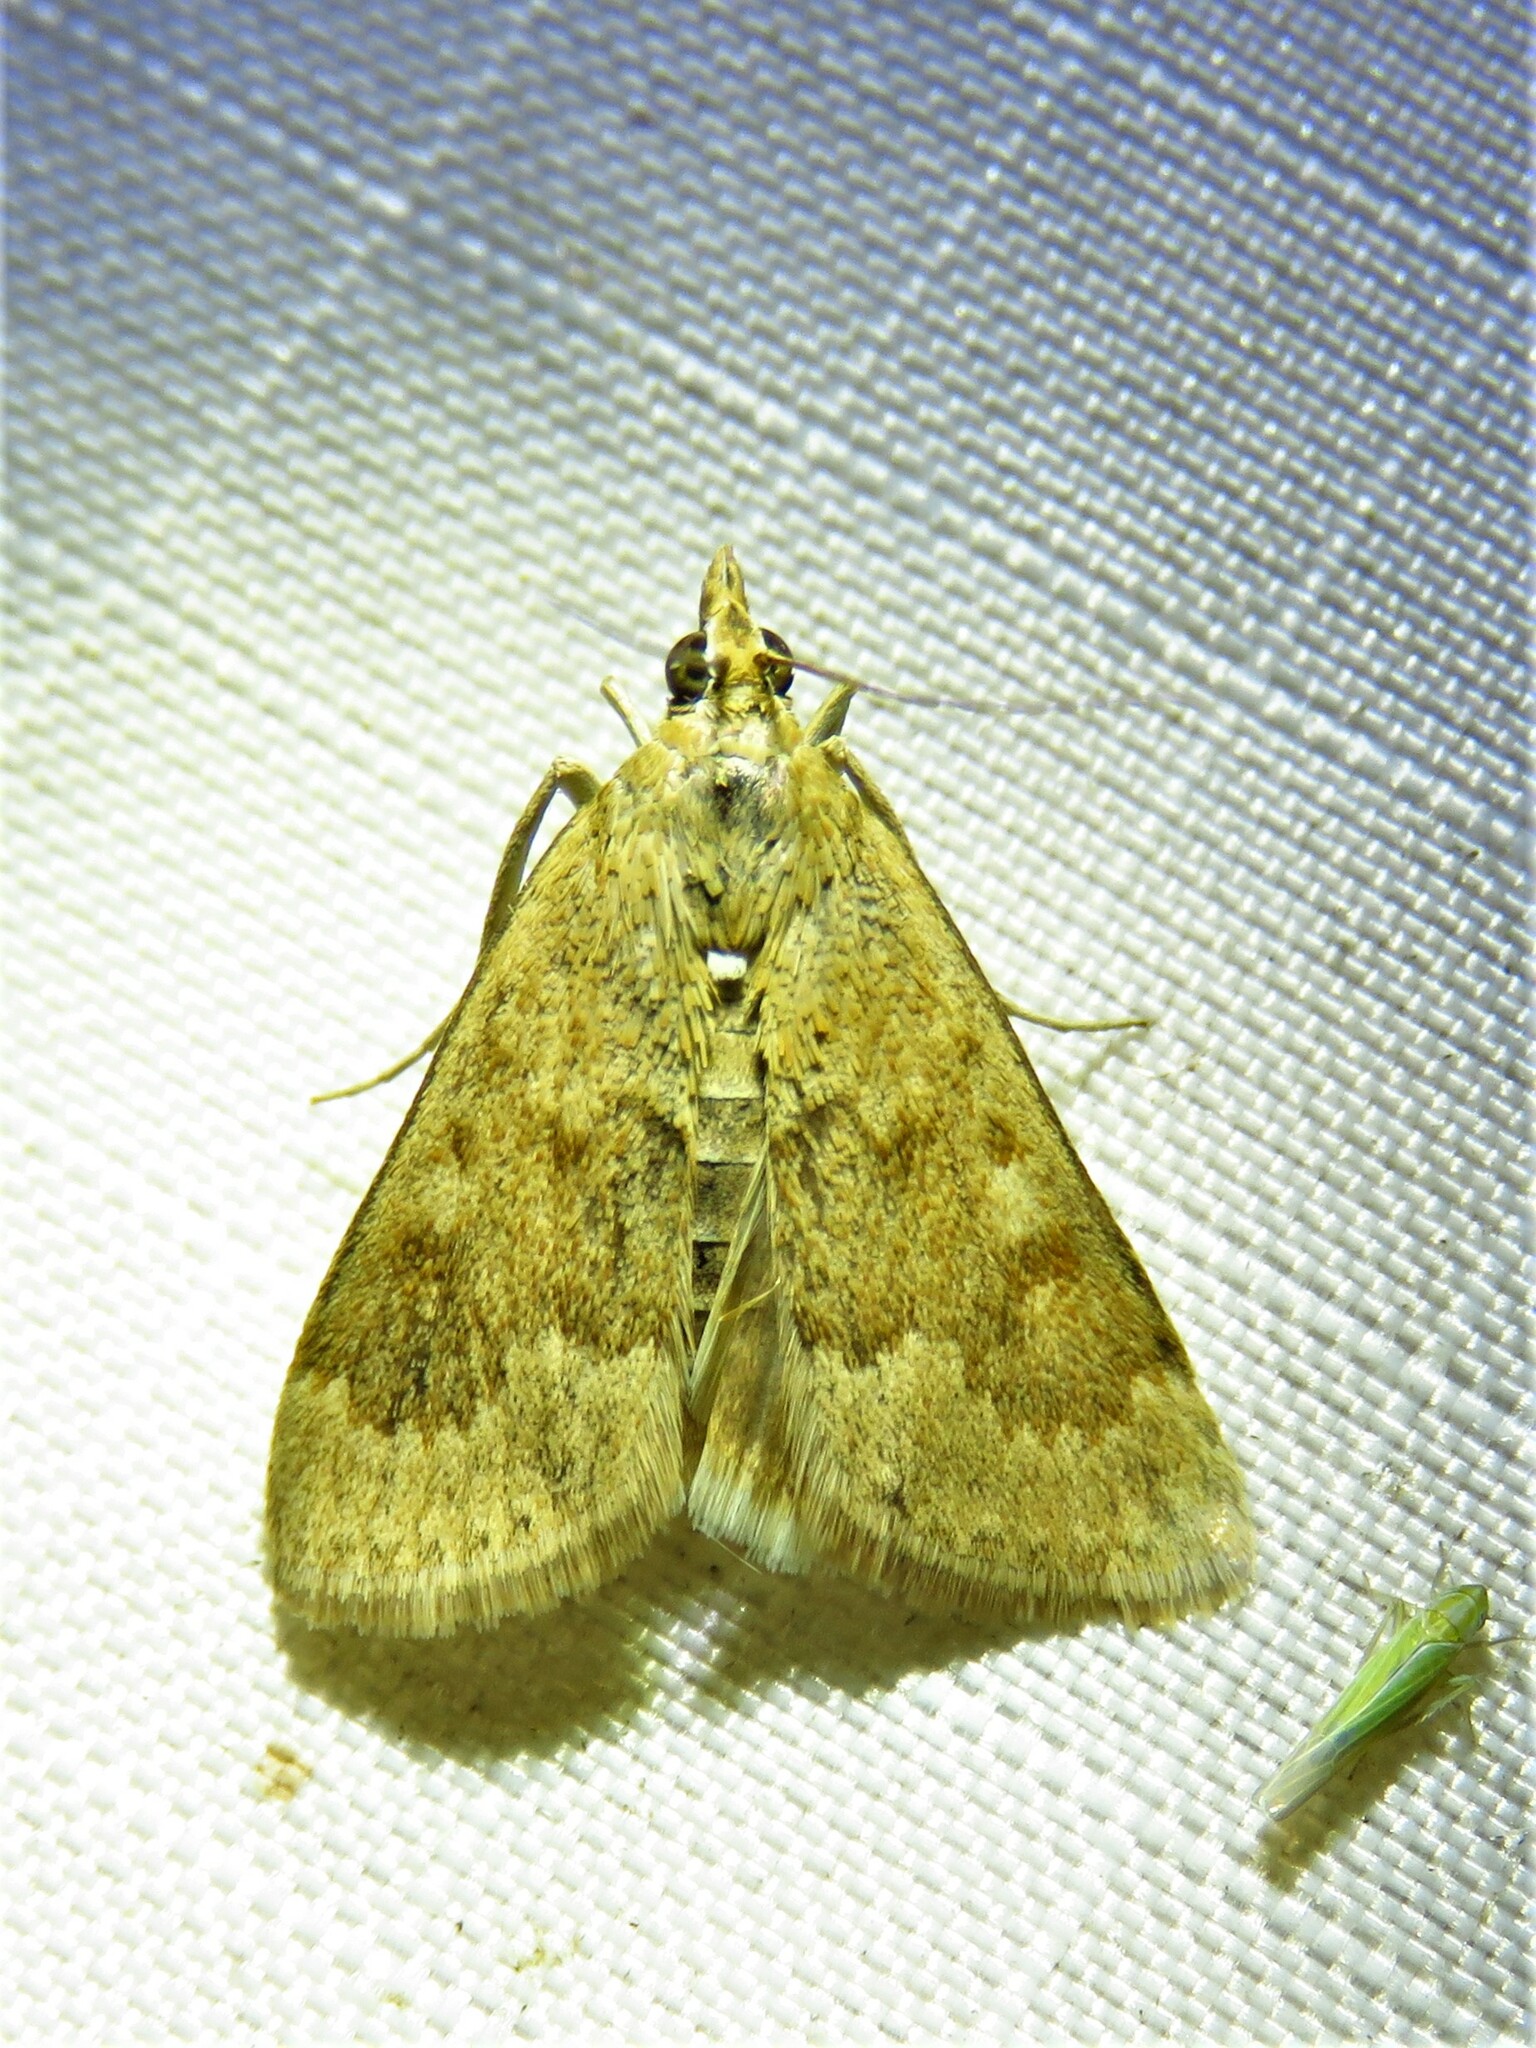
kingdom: Animalia
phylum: Arthropoda
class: Insecta
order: Lepidoptera
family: Crambidae
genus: Achyra
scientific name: Achyra rantalis
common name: Garden webworm
